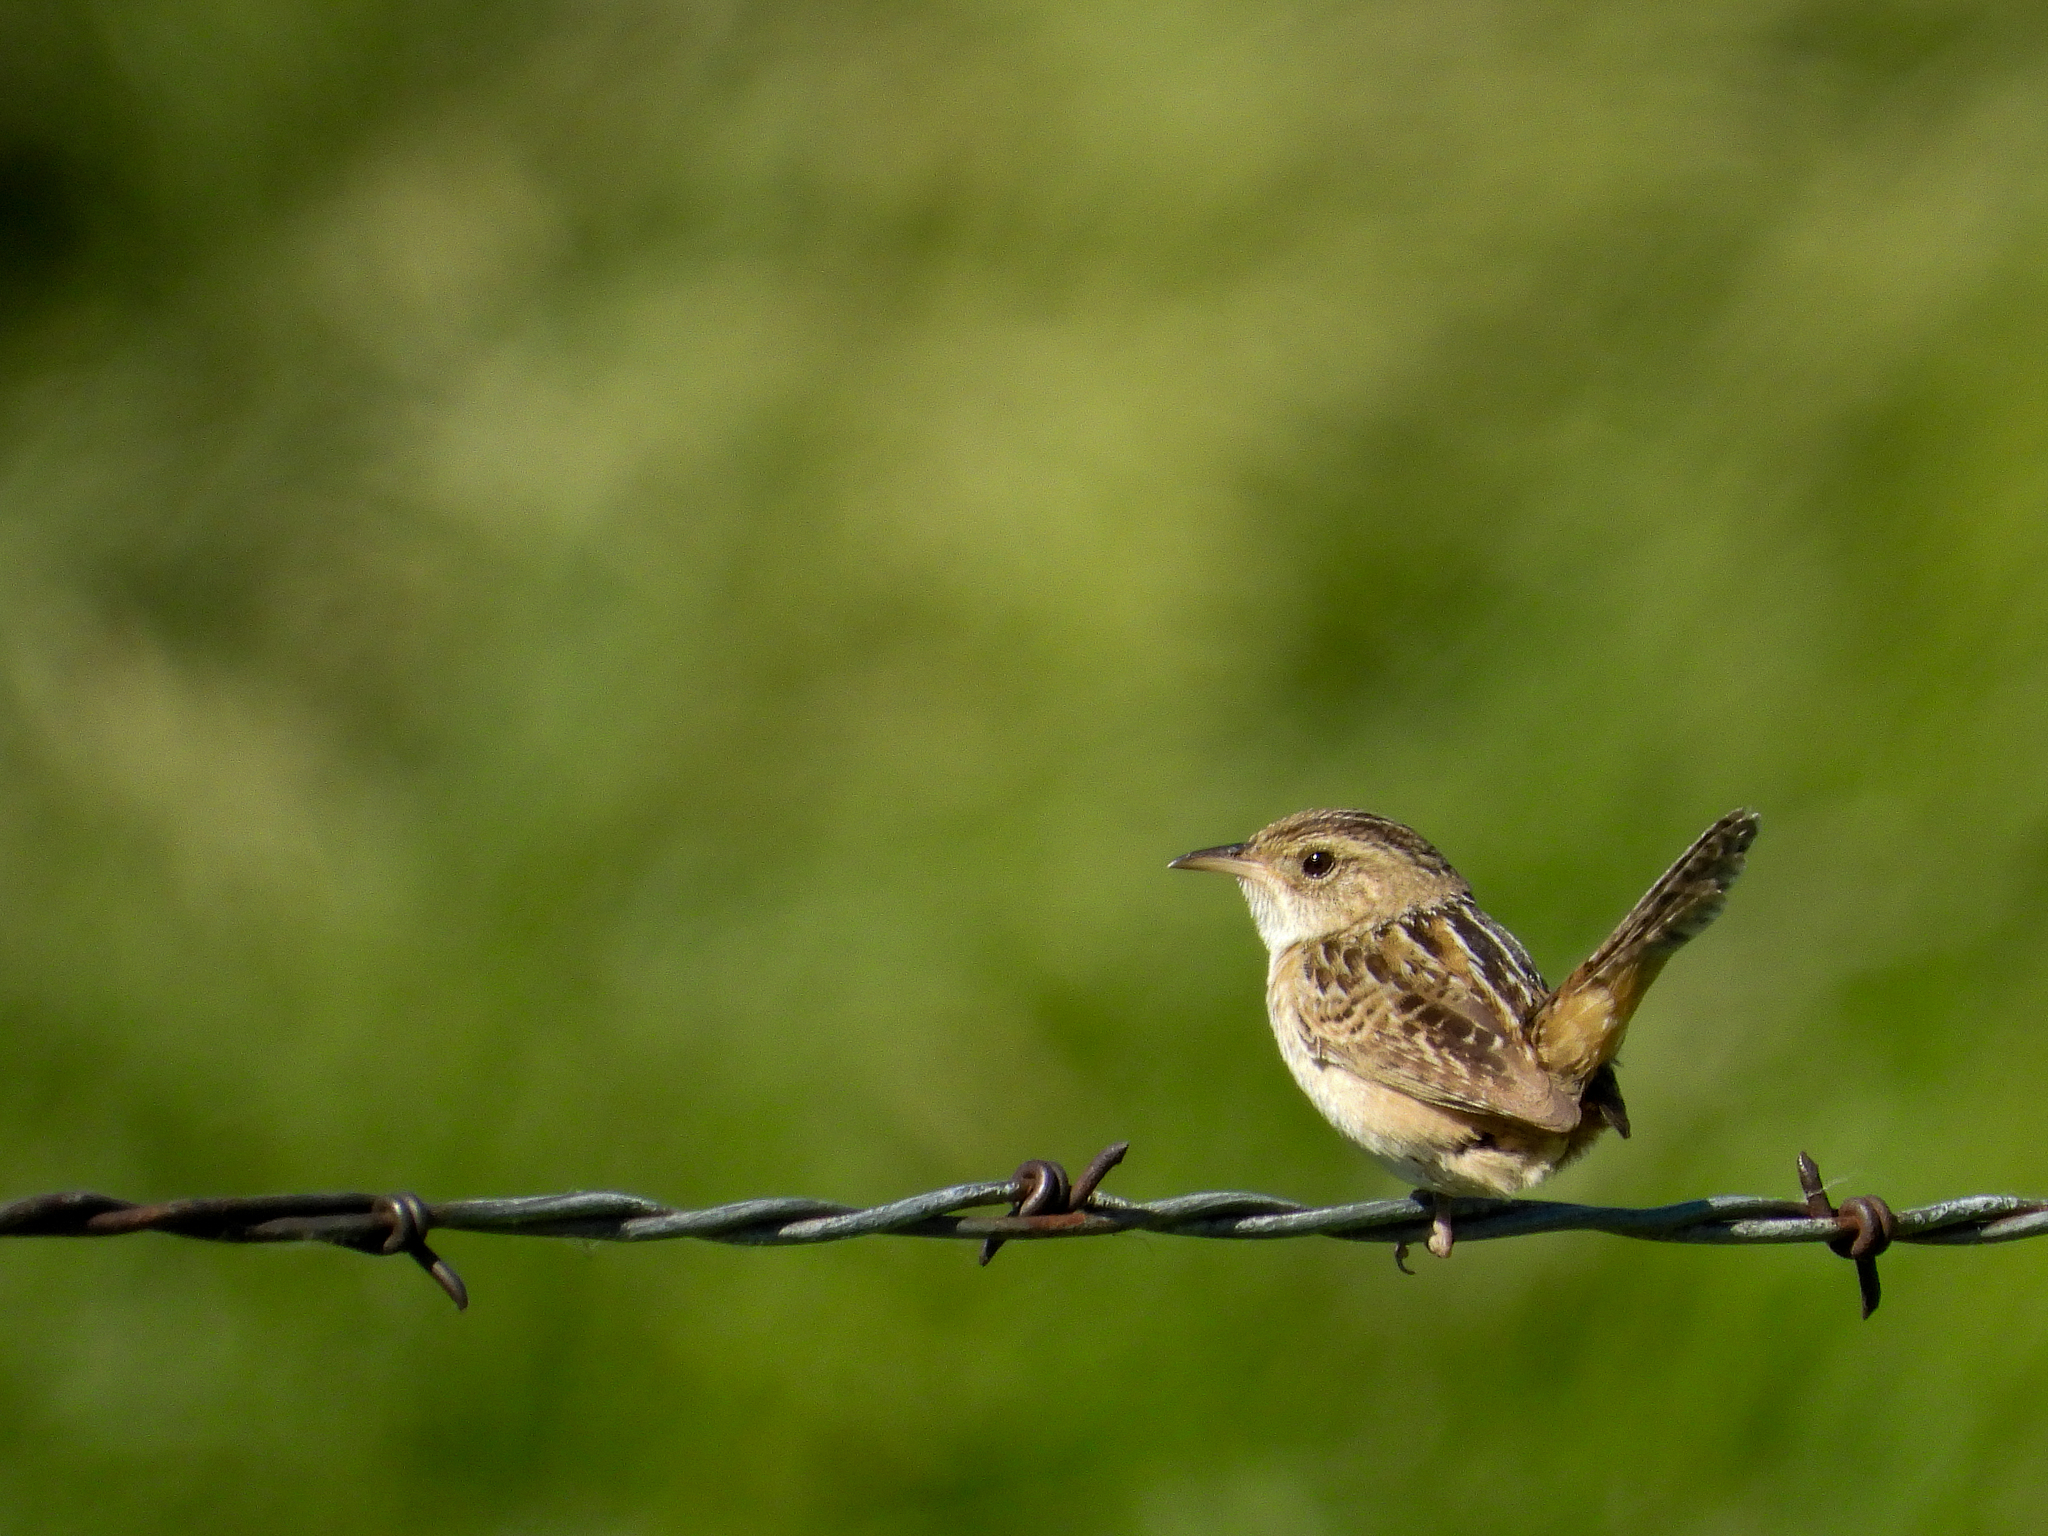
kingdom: Animalia
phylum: Chordata
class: Aves
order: Passeriformes
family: Troglodytidae
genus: Cistothorus
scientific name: Cistothorus platensis
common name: Sedge wren
